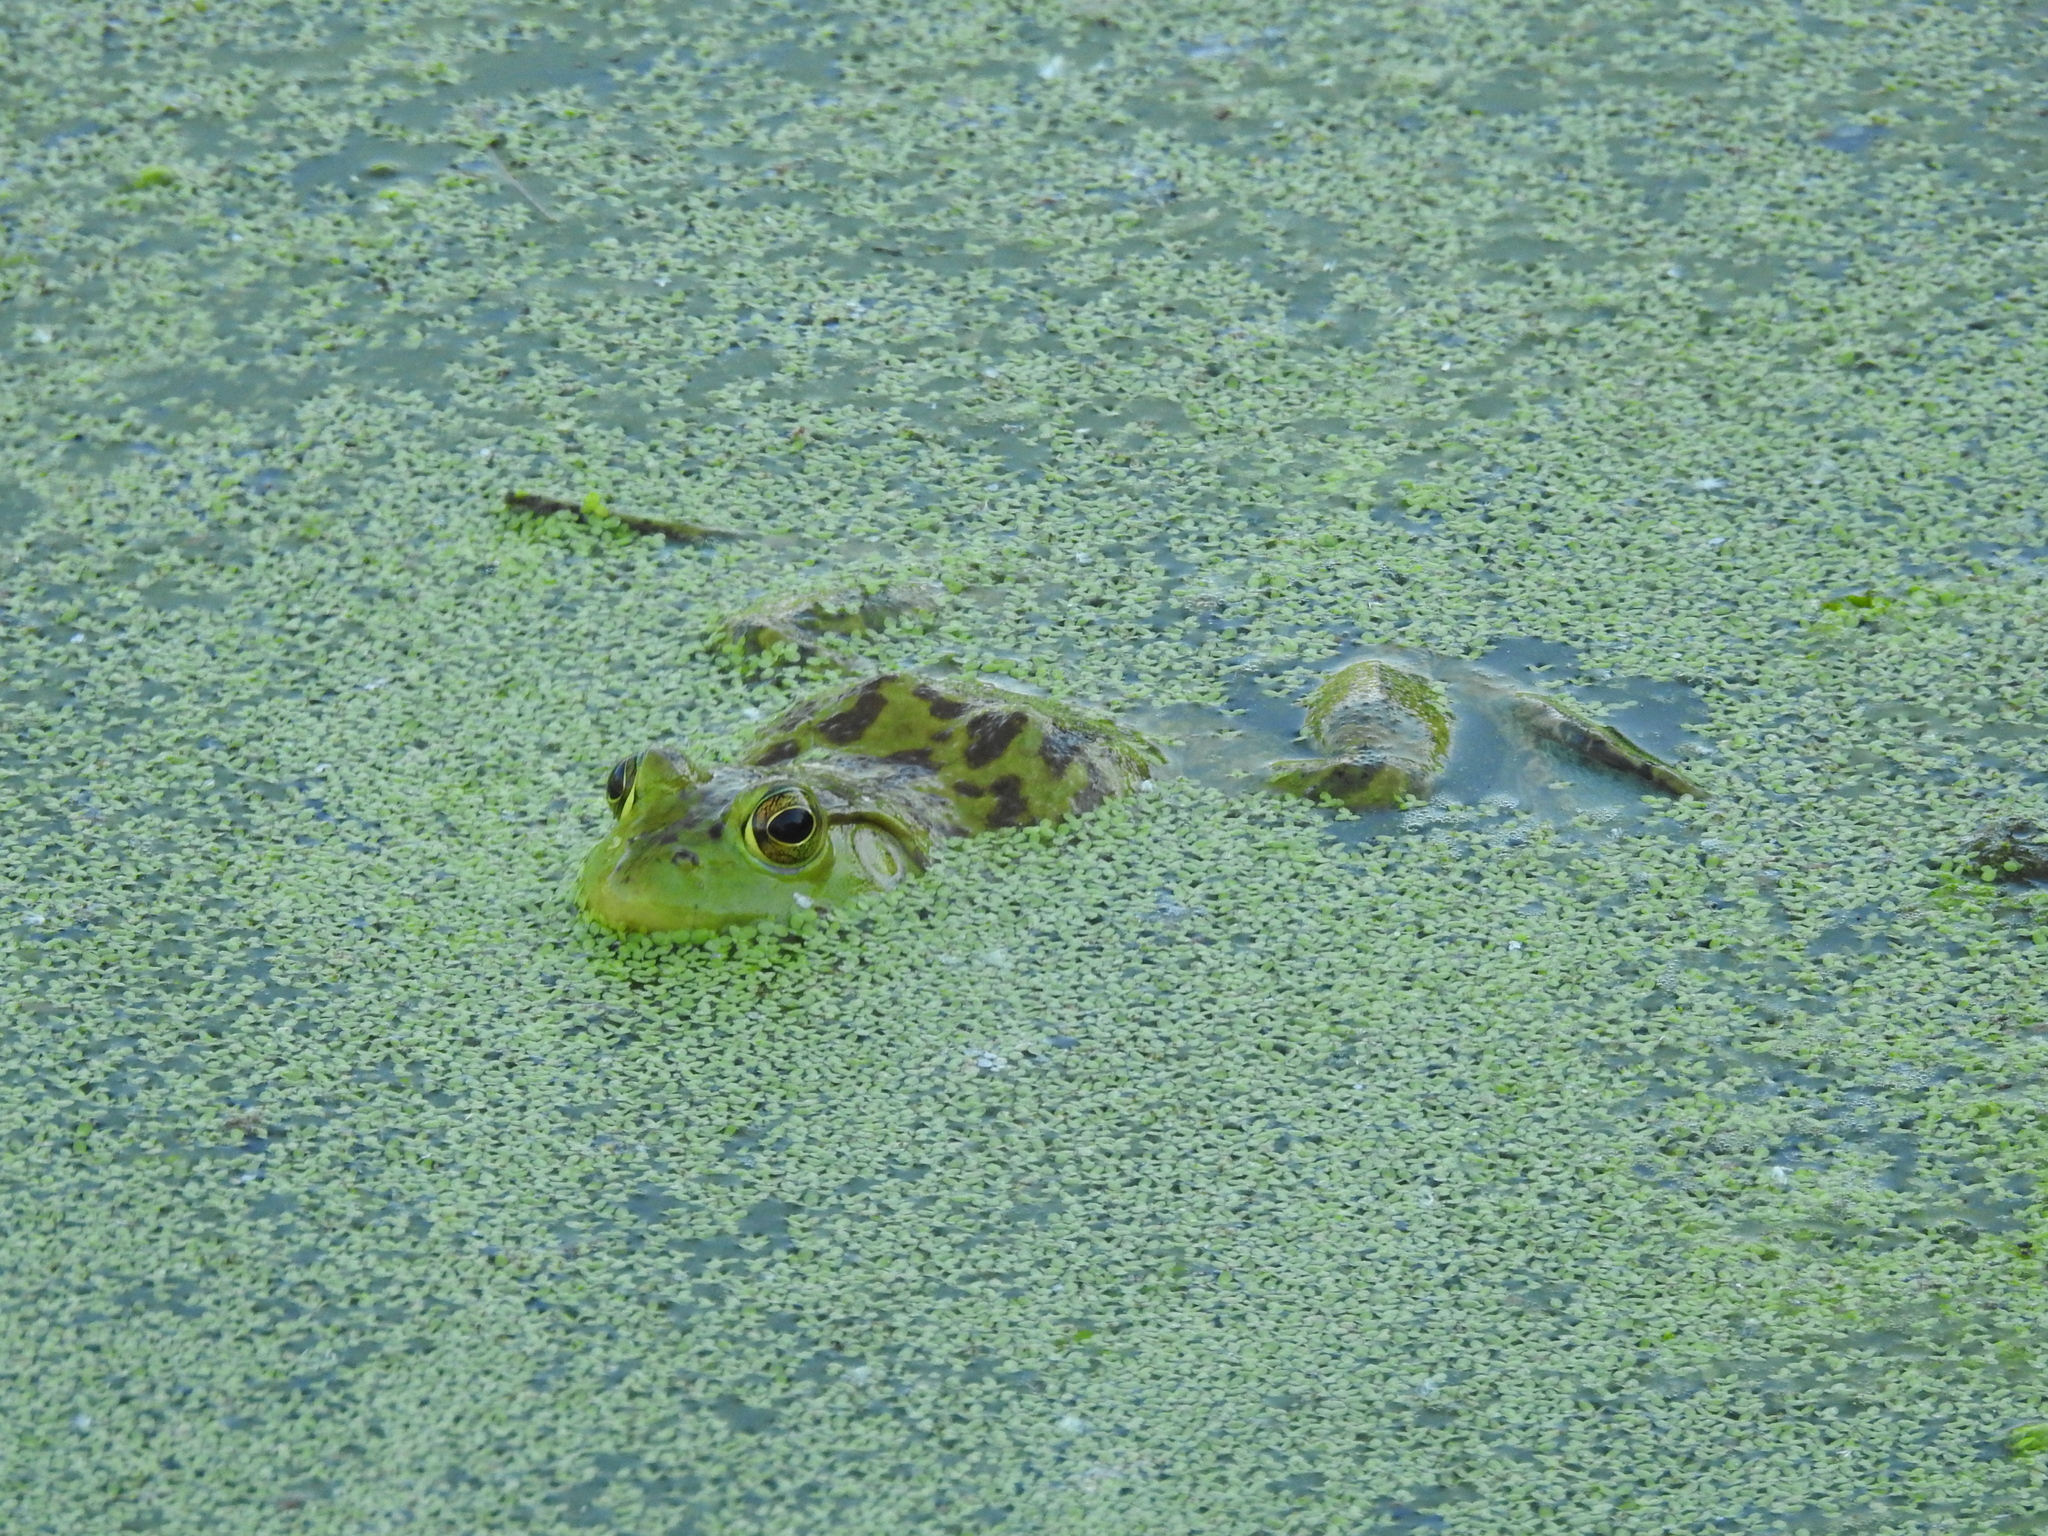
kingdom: Animalia
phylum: Chordata
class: Amphibia
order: Anura
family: Ranidae
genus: Lithobates
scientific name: Lithobates catesbeianus
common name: American bullfrog
